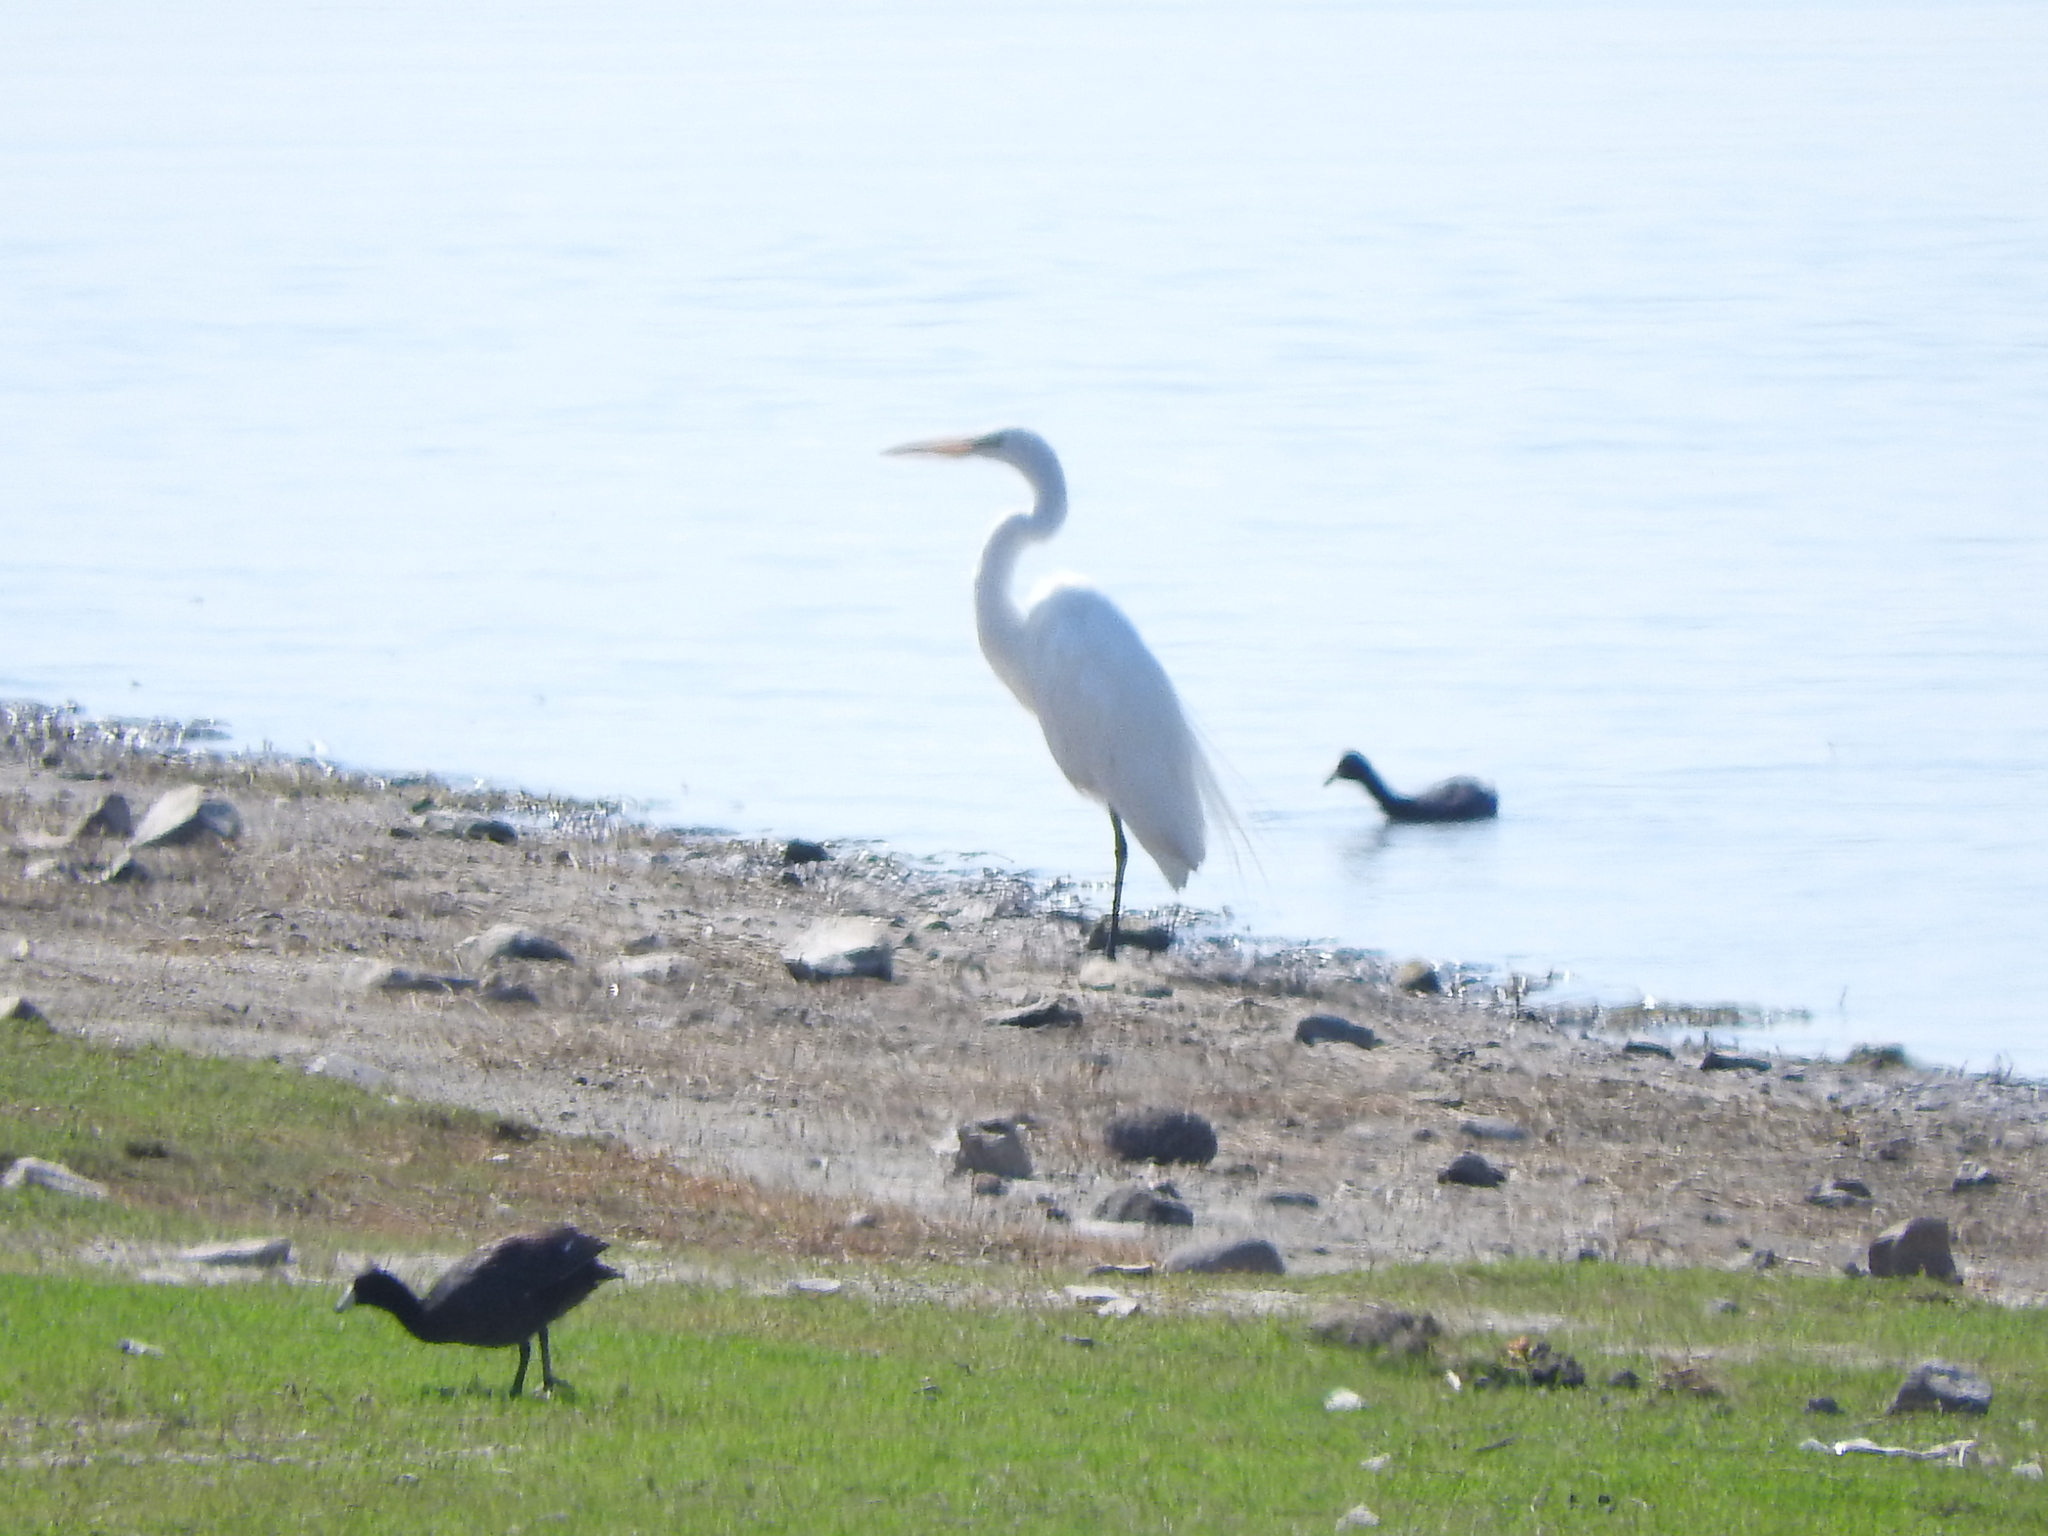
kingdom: Animalia
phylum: Chordata
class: Aves
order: Pelecaniformes
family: Ardeidae
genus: Ardea
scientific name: Ardea alba
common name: Great egret
